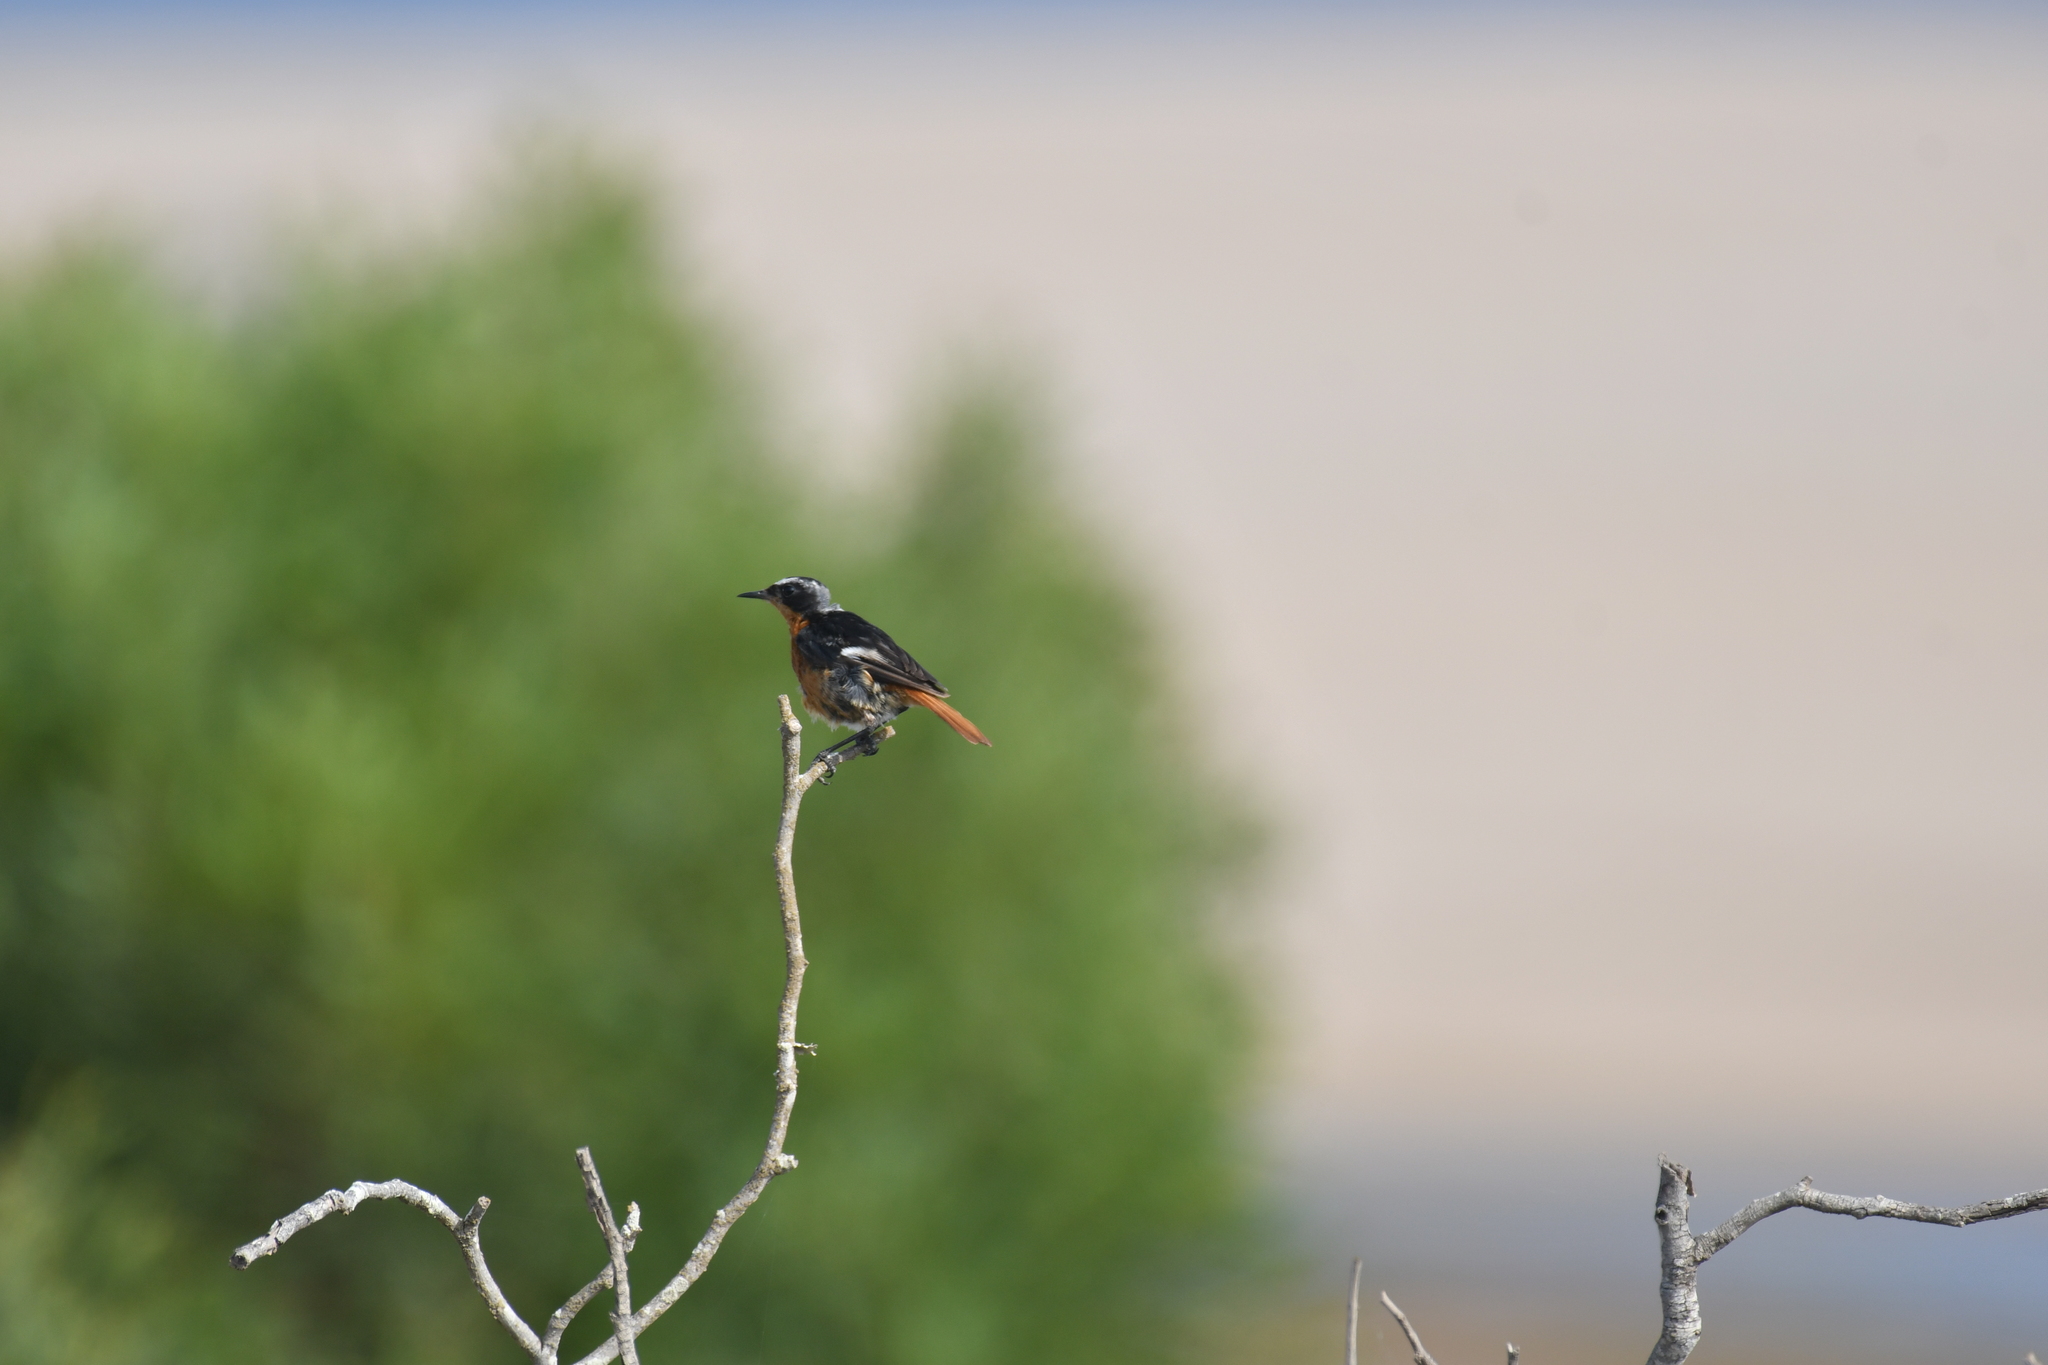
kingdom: Animalia
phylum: Chordata
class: Aves
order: Passeriformes
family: Muscicapidae
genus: Phoenicurus
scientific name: Phoenicurus moussieri
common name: Moussier's redstart
